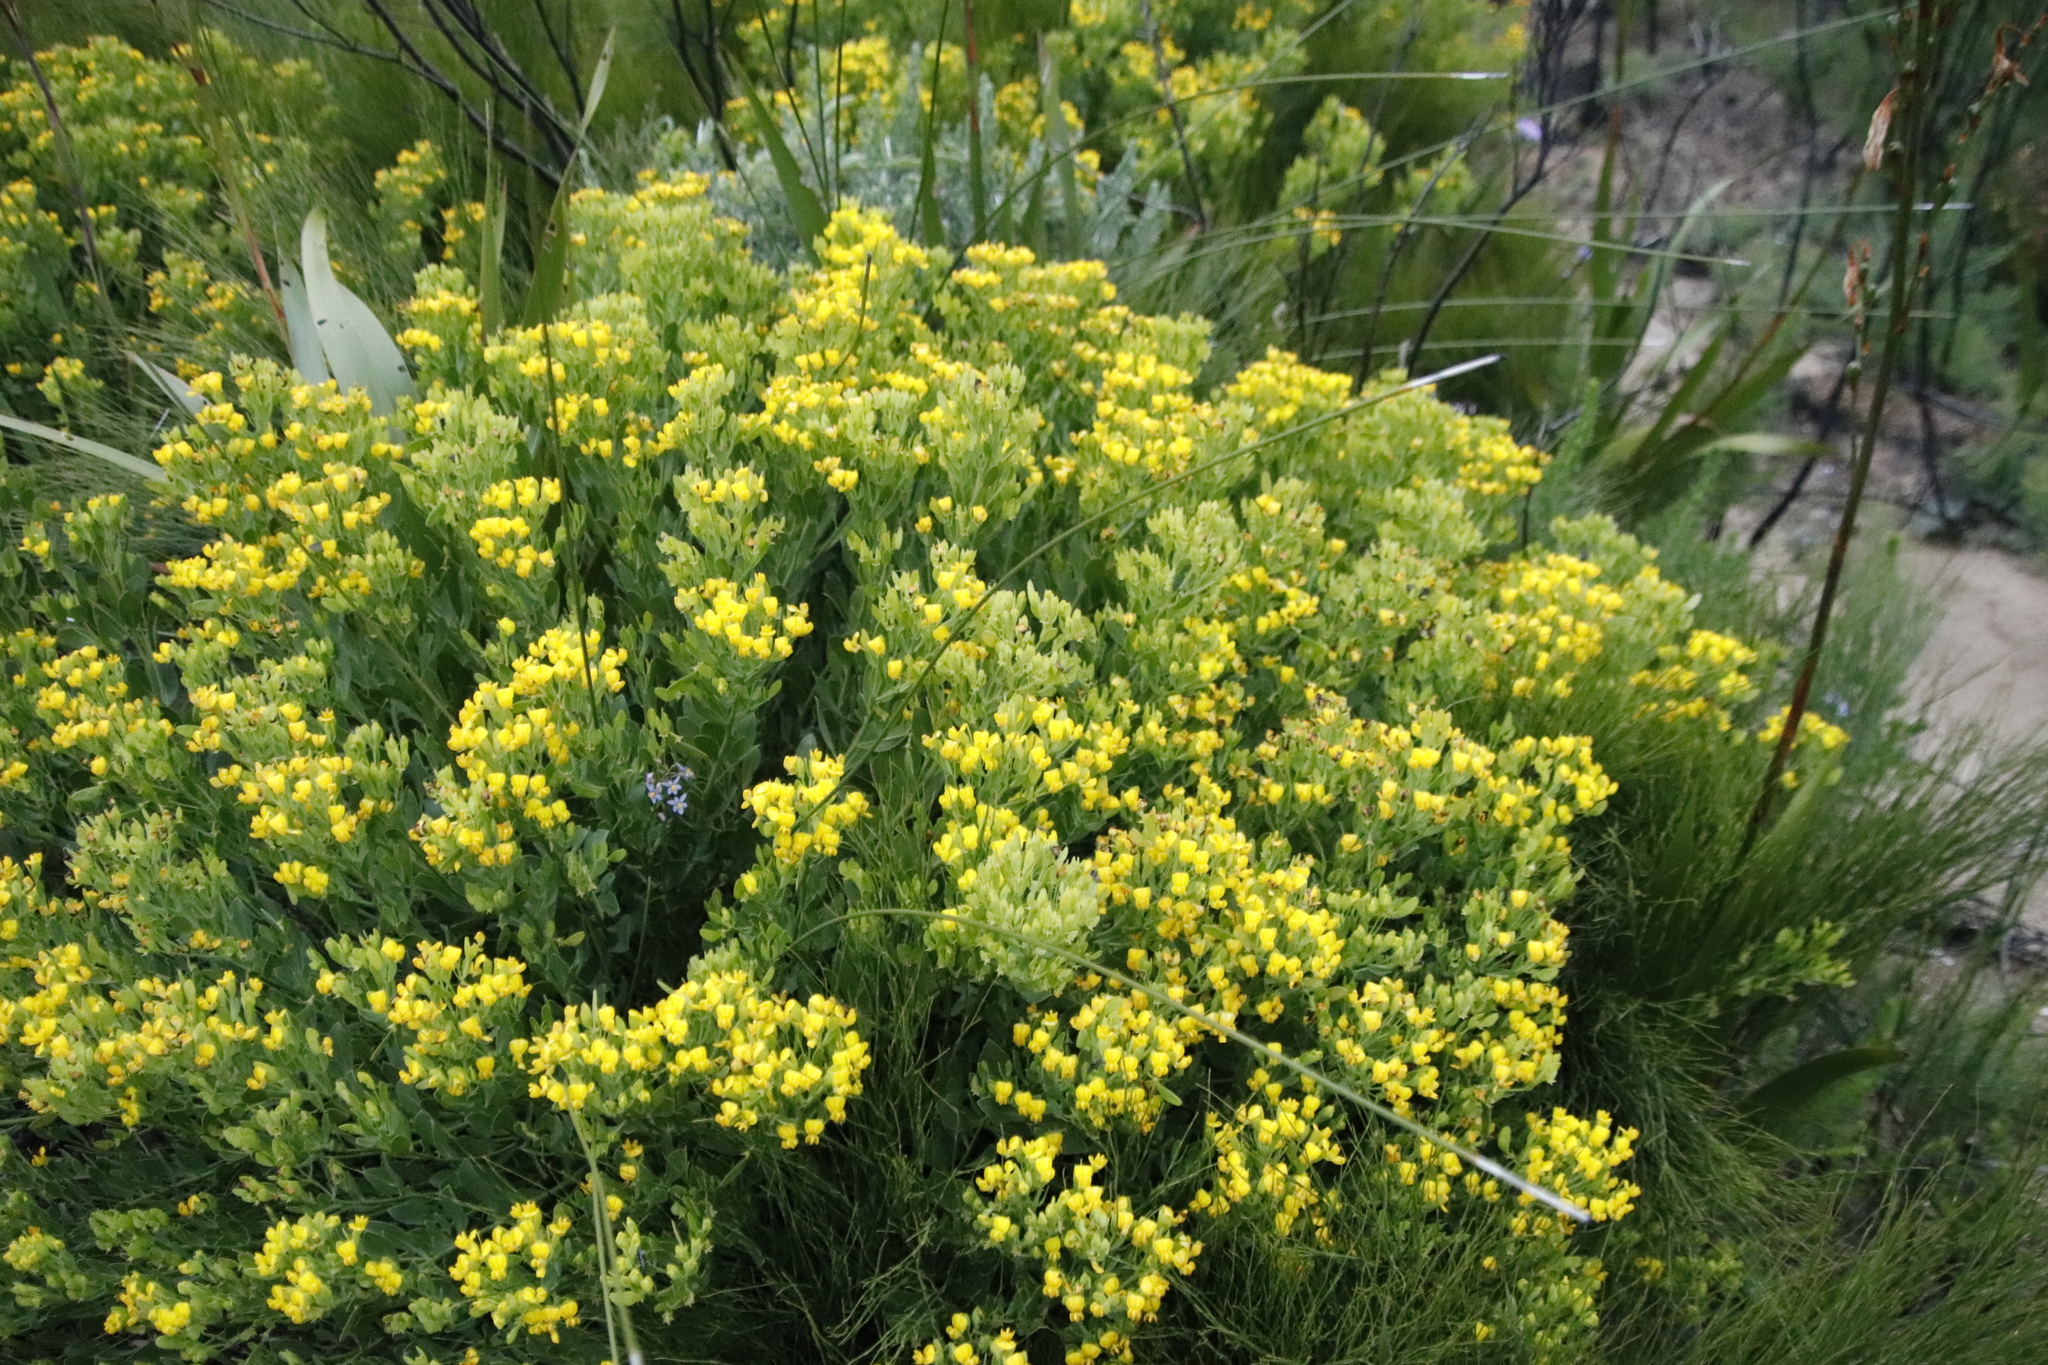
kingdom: Plantae
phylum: Tracheophyta
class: Magnoliopsida
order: Fabales
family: Fabaceae
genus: Rafnia
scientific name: Rafnia capensis
